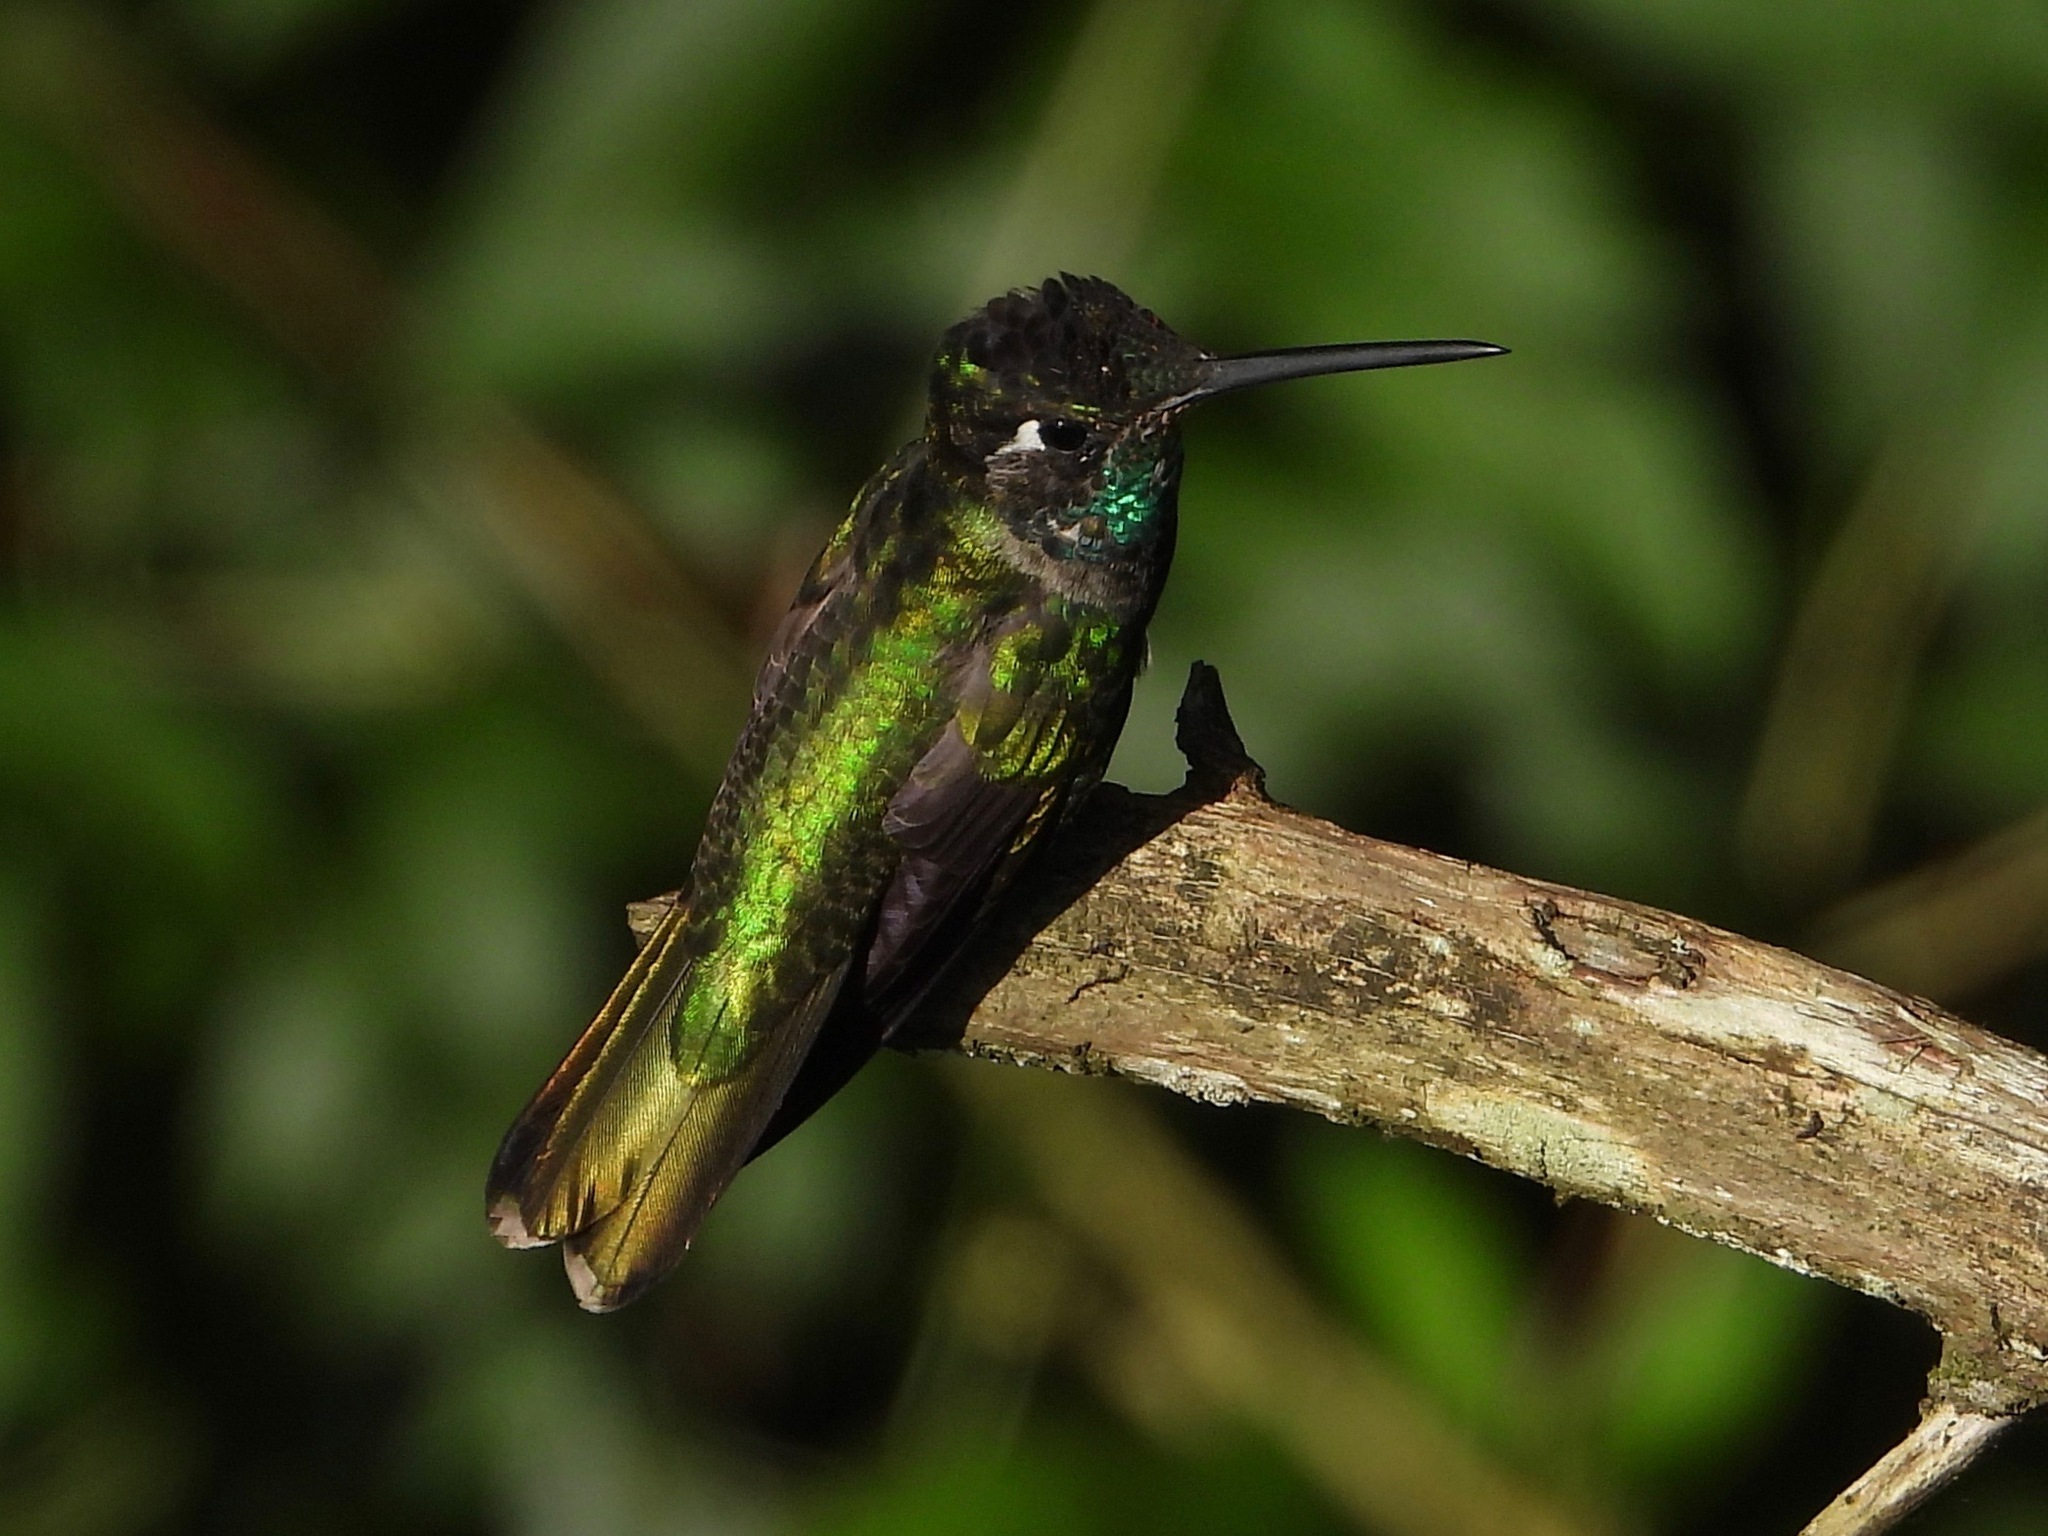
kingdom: Animalia
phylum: Chordata
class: Aves
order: Apodiformes
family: Trochilidae
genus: Eugenes
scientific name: Eugenes fulgens
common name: Magnificent hummingbird
